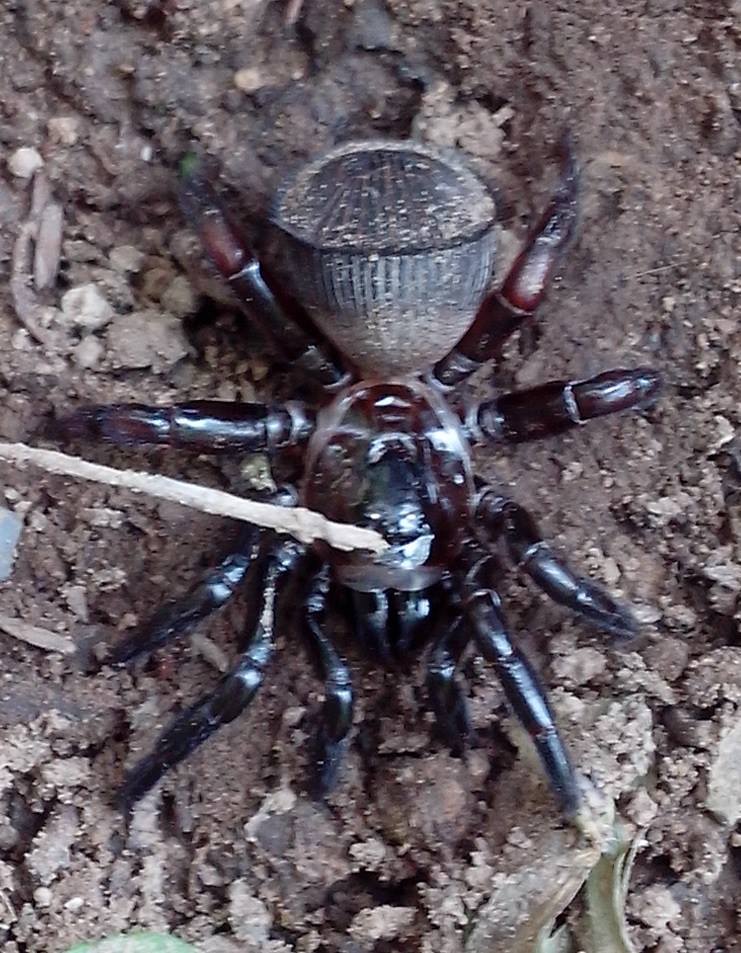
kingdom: Animalia
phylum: Arthropoda
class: Arachnida
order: Araneae
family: Halonoproctidae
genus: Cyclocosmia
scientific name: Cyclocosmia loricata
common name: Trapdoor spiders
